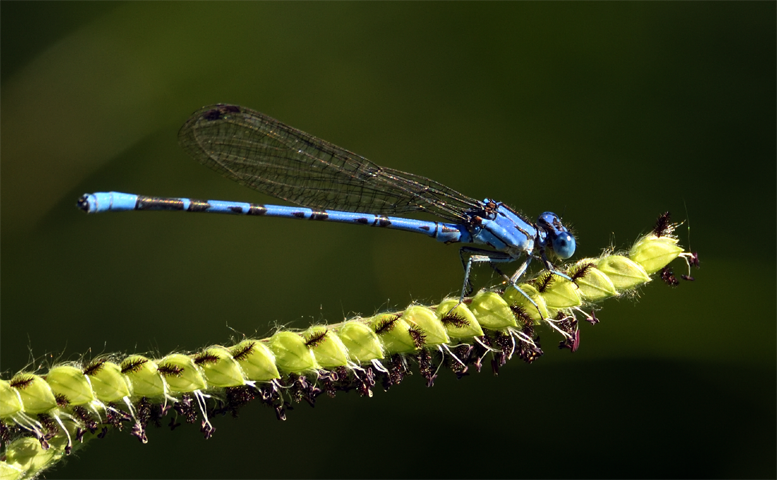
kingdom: Animalia
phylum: Arthropoda
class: Insecta
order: Odonata
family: Coenagrionidae
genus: Argia
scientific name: Argia vivida
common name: Vivid dancer
